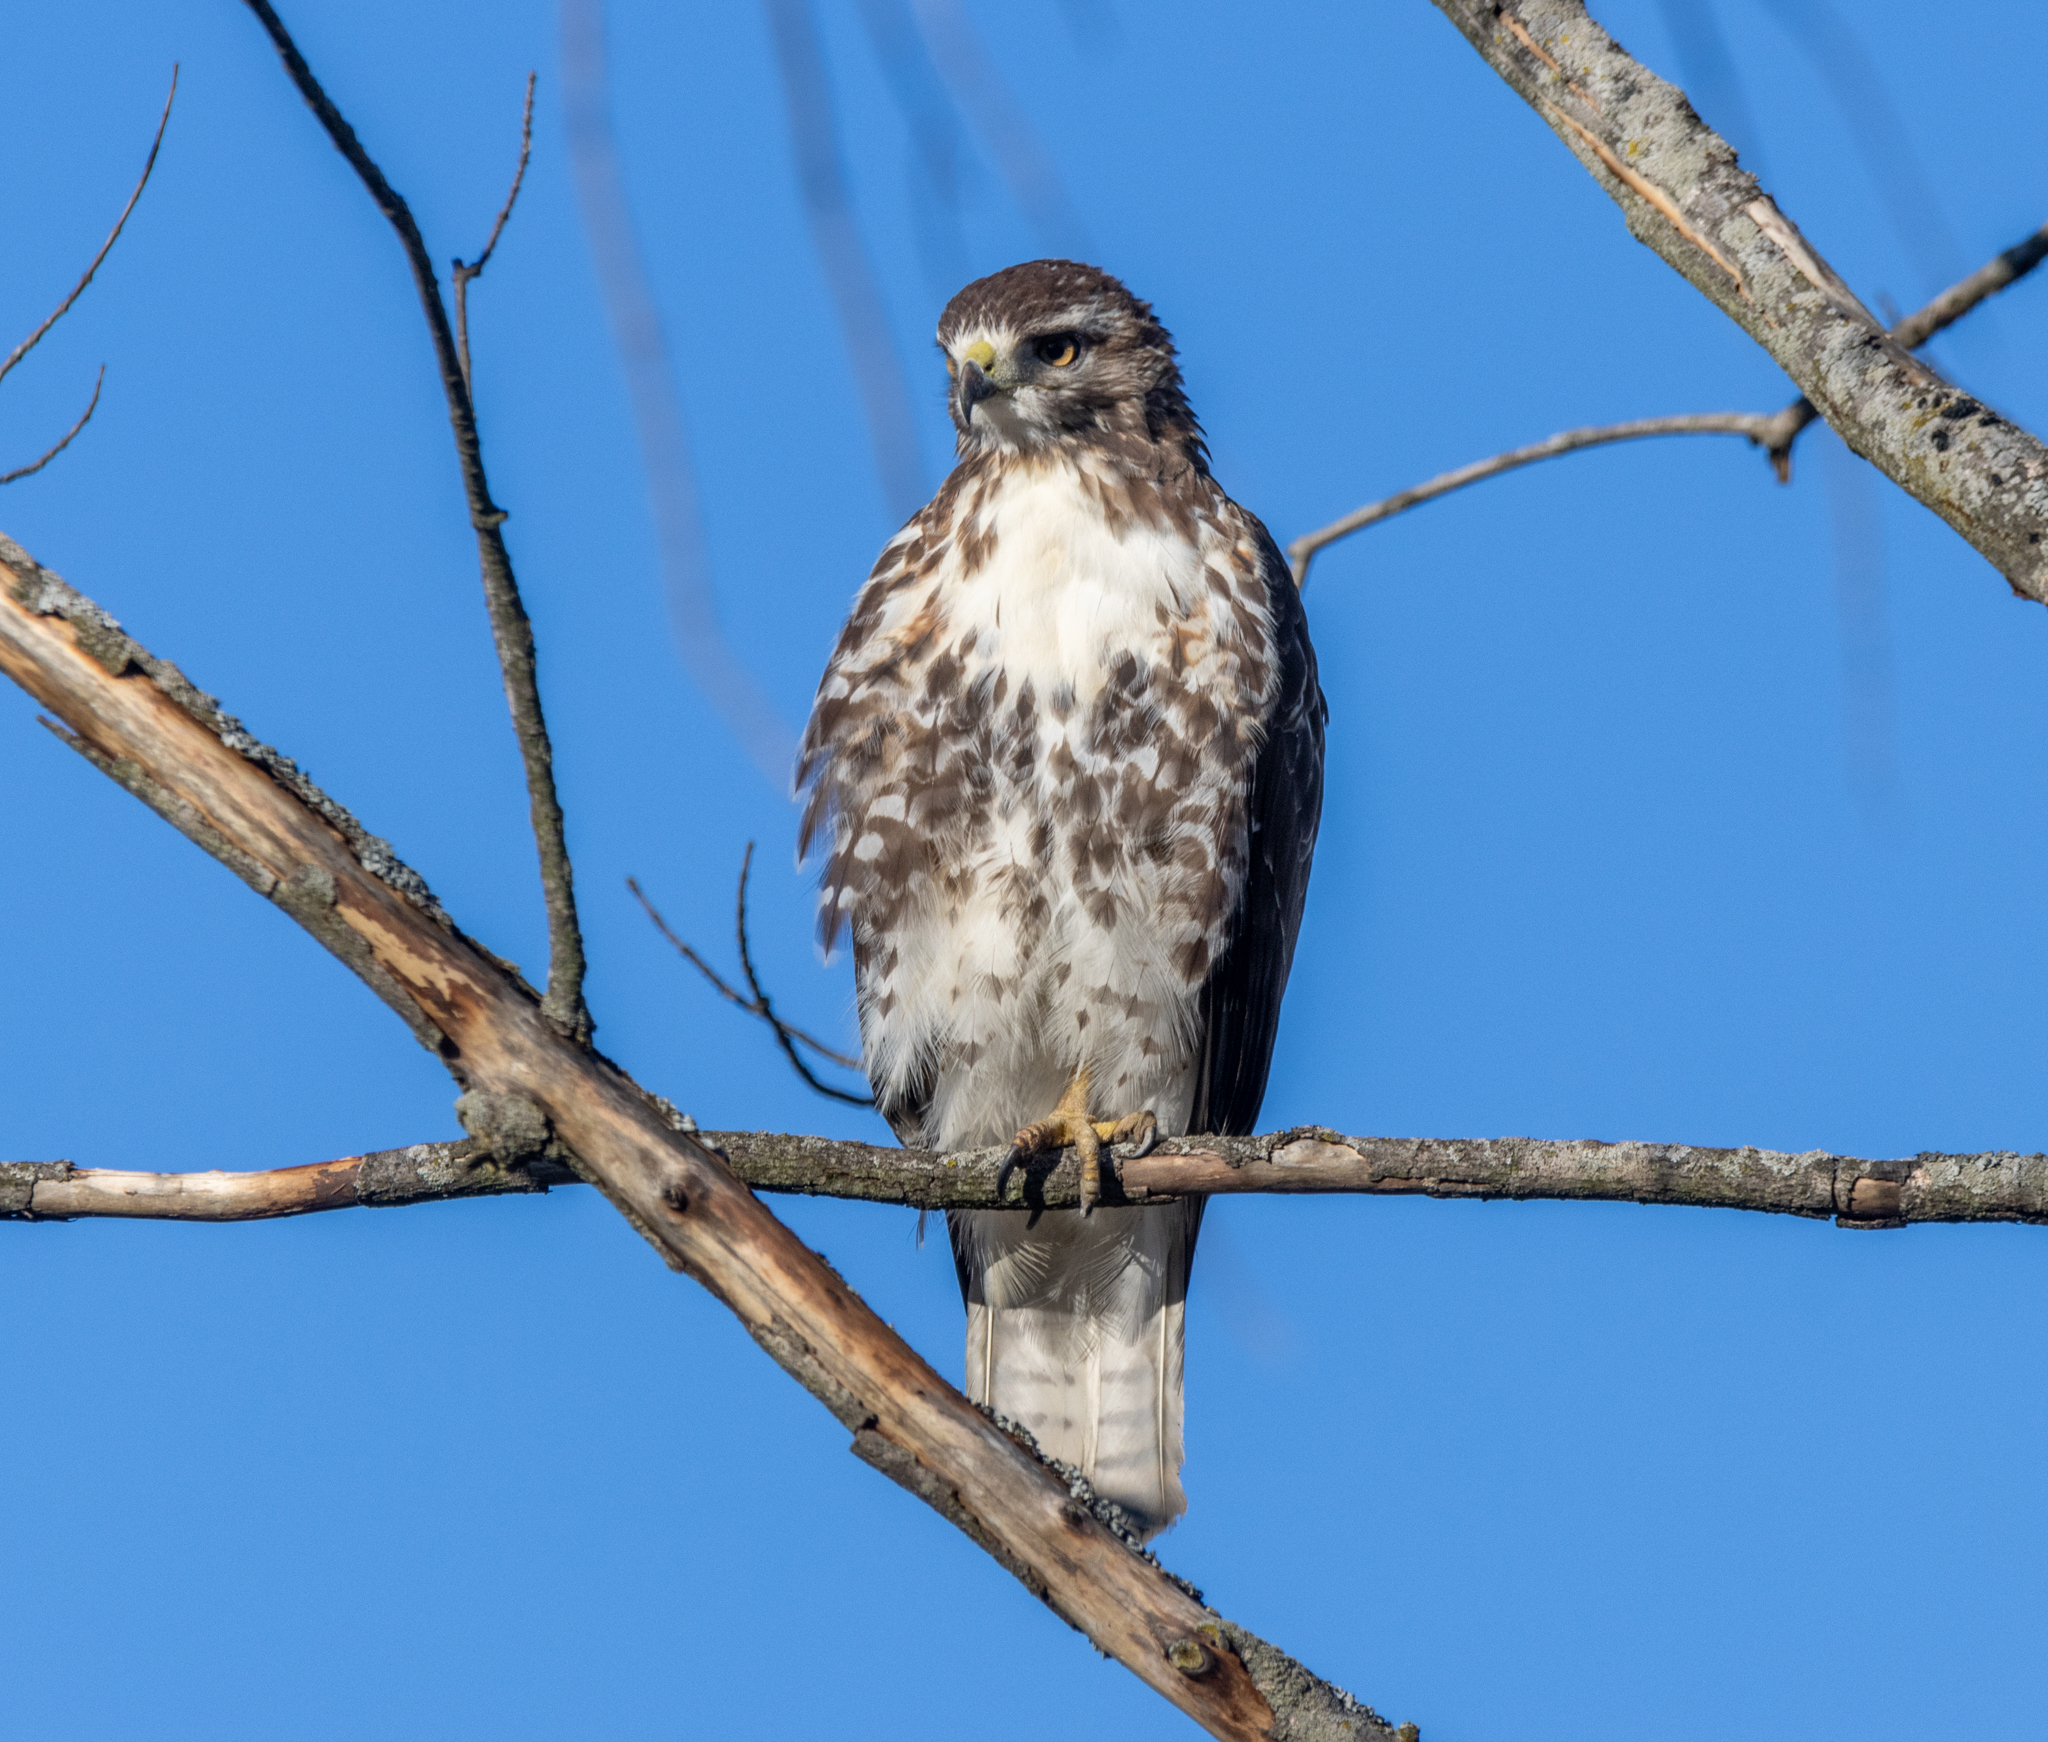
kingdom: Animalia
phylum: Chordata
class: Aves
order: Accipitriformes
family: Accipitridae
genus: Buteo
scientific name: Buteo jamaicensis
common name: Red-tailed hawk
